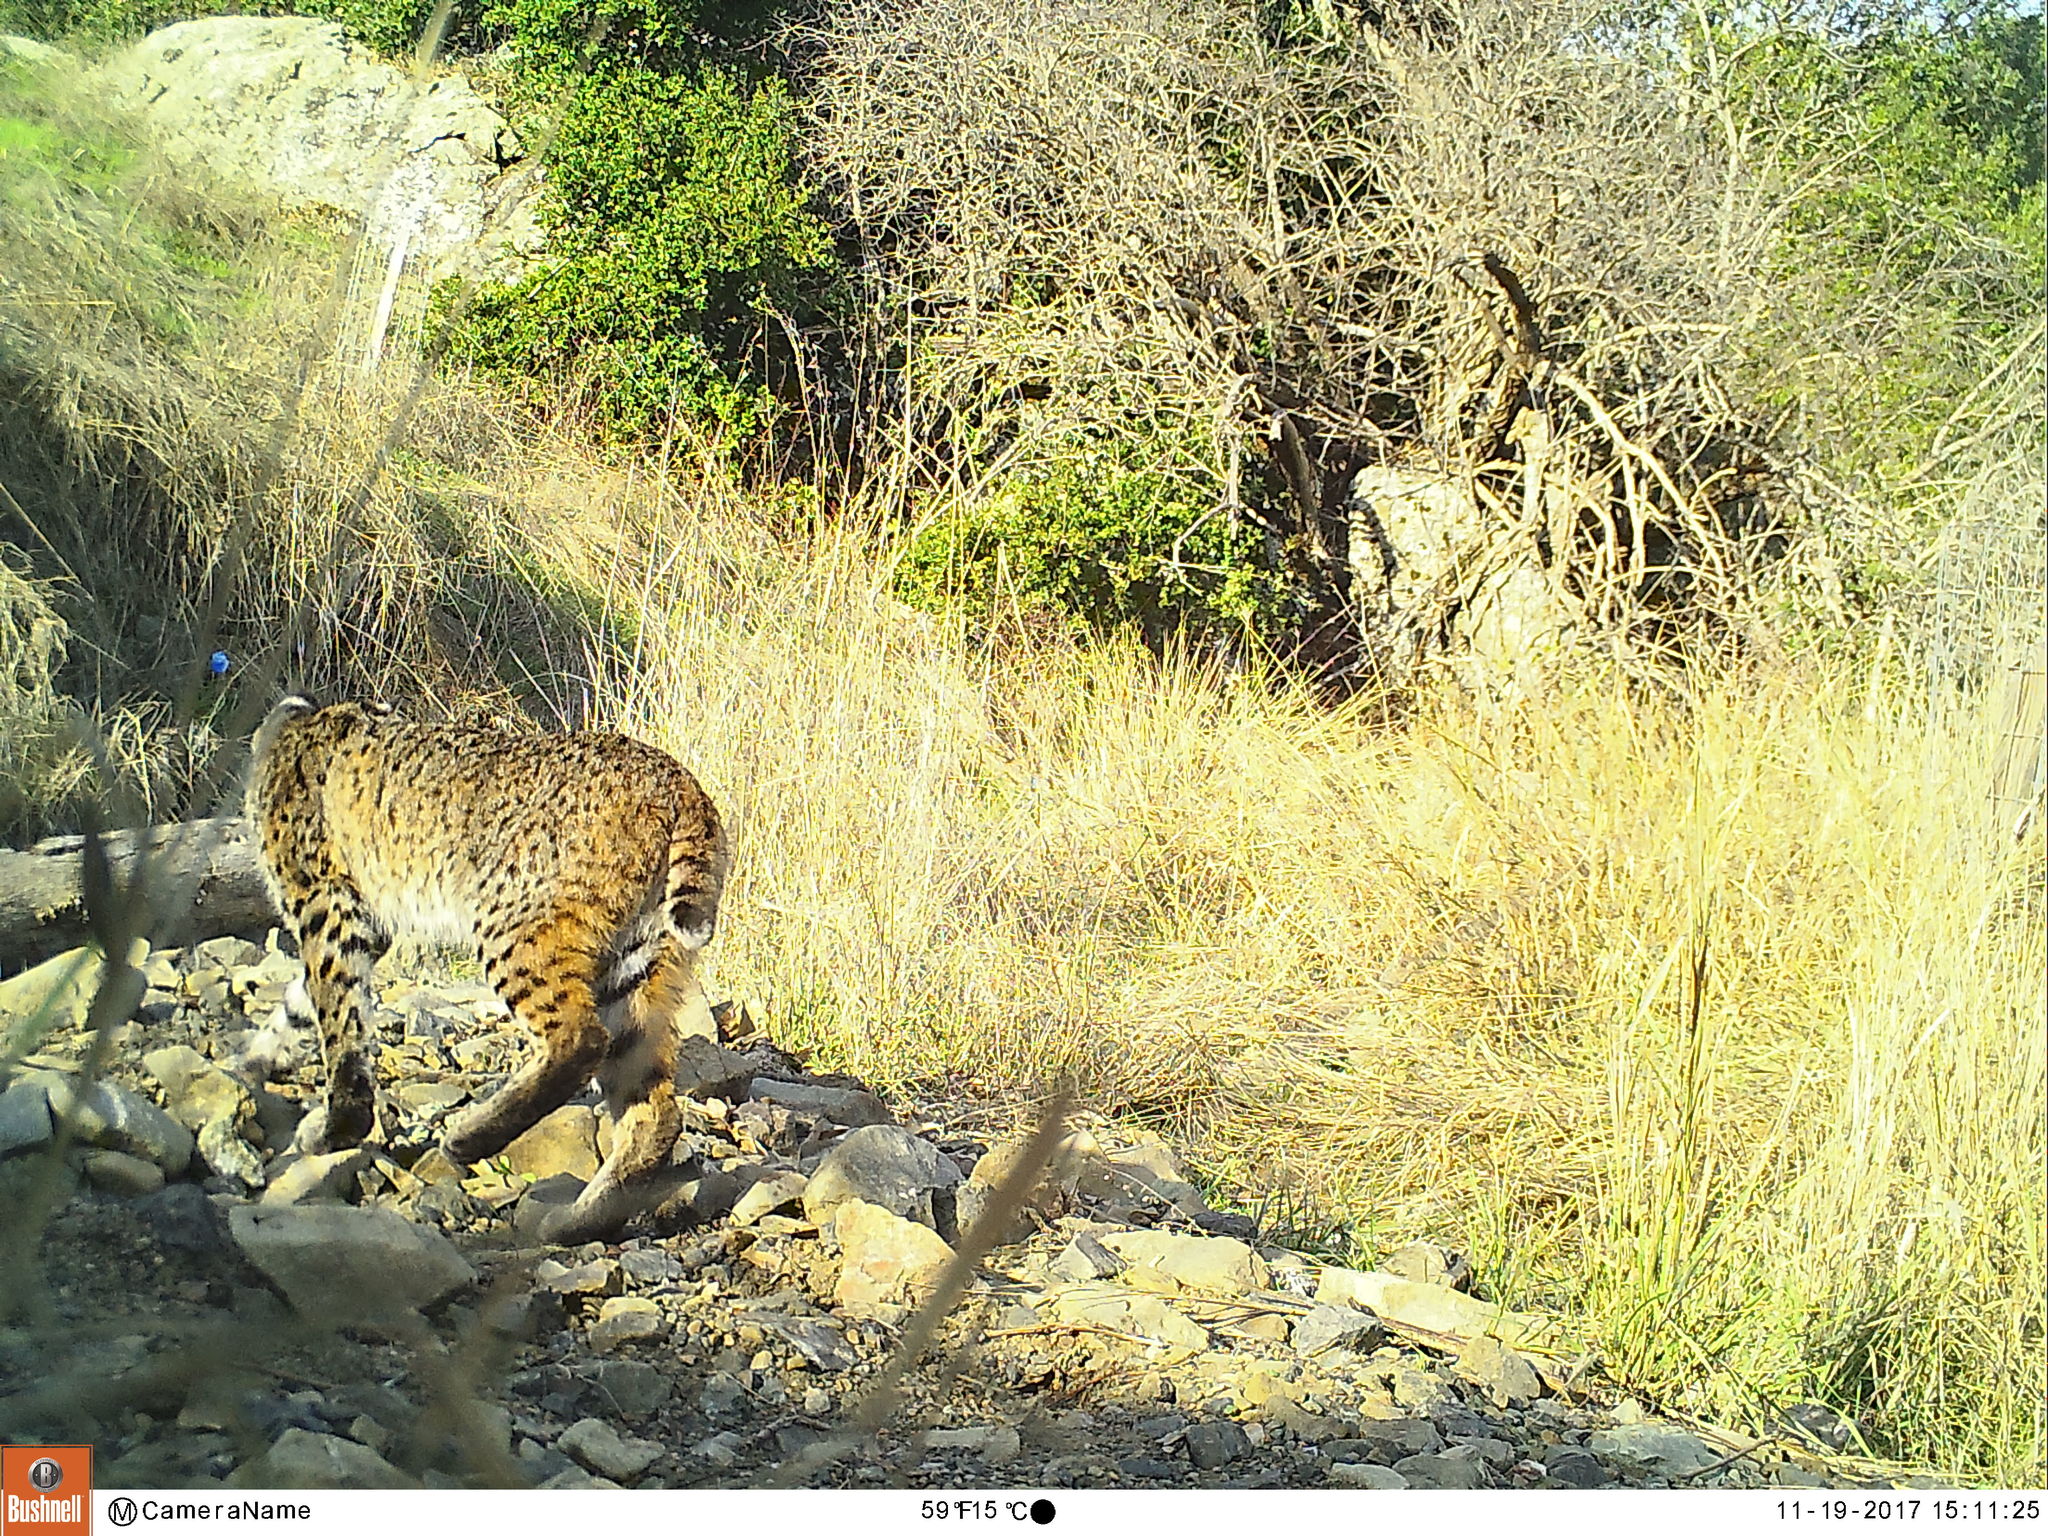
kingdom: Animalia
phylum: Chordata
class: Mammalia
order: Carnivora
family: Felidae
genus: Lynx
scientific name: Lynx rufus
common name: Bobcat
